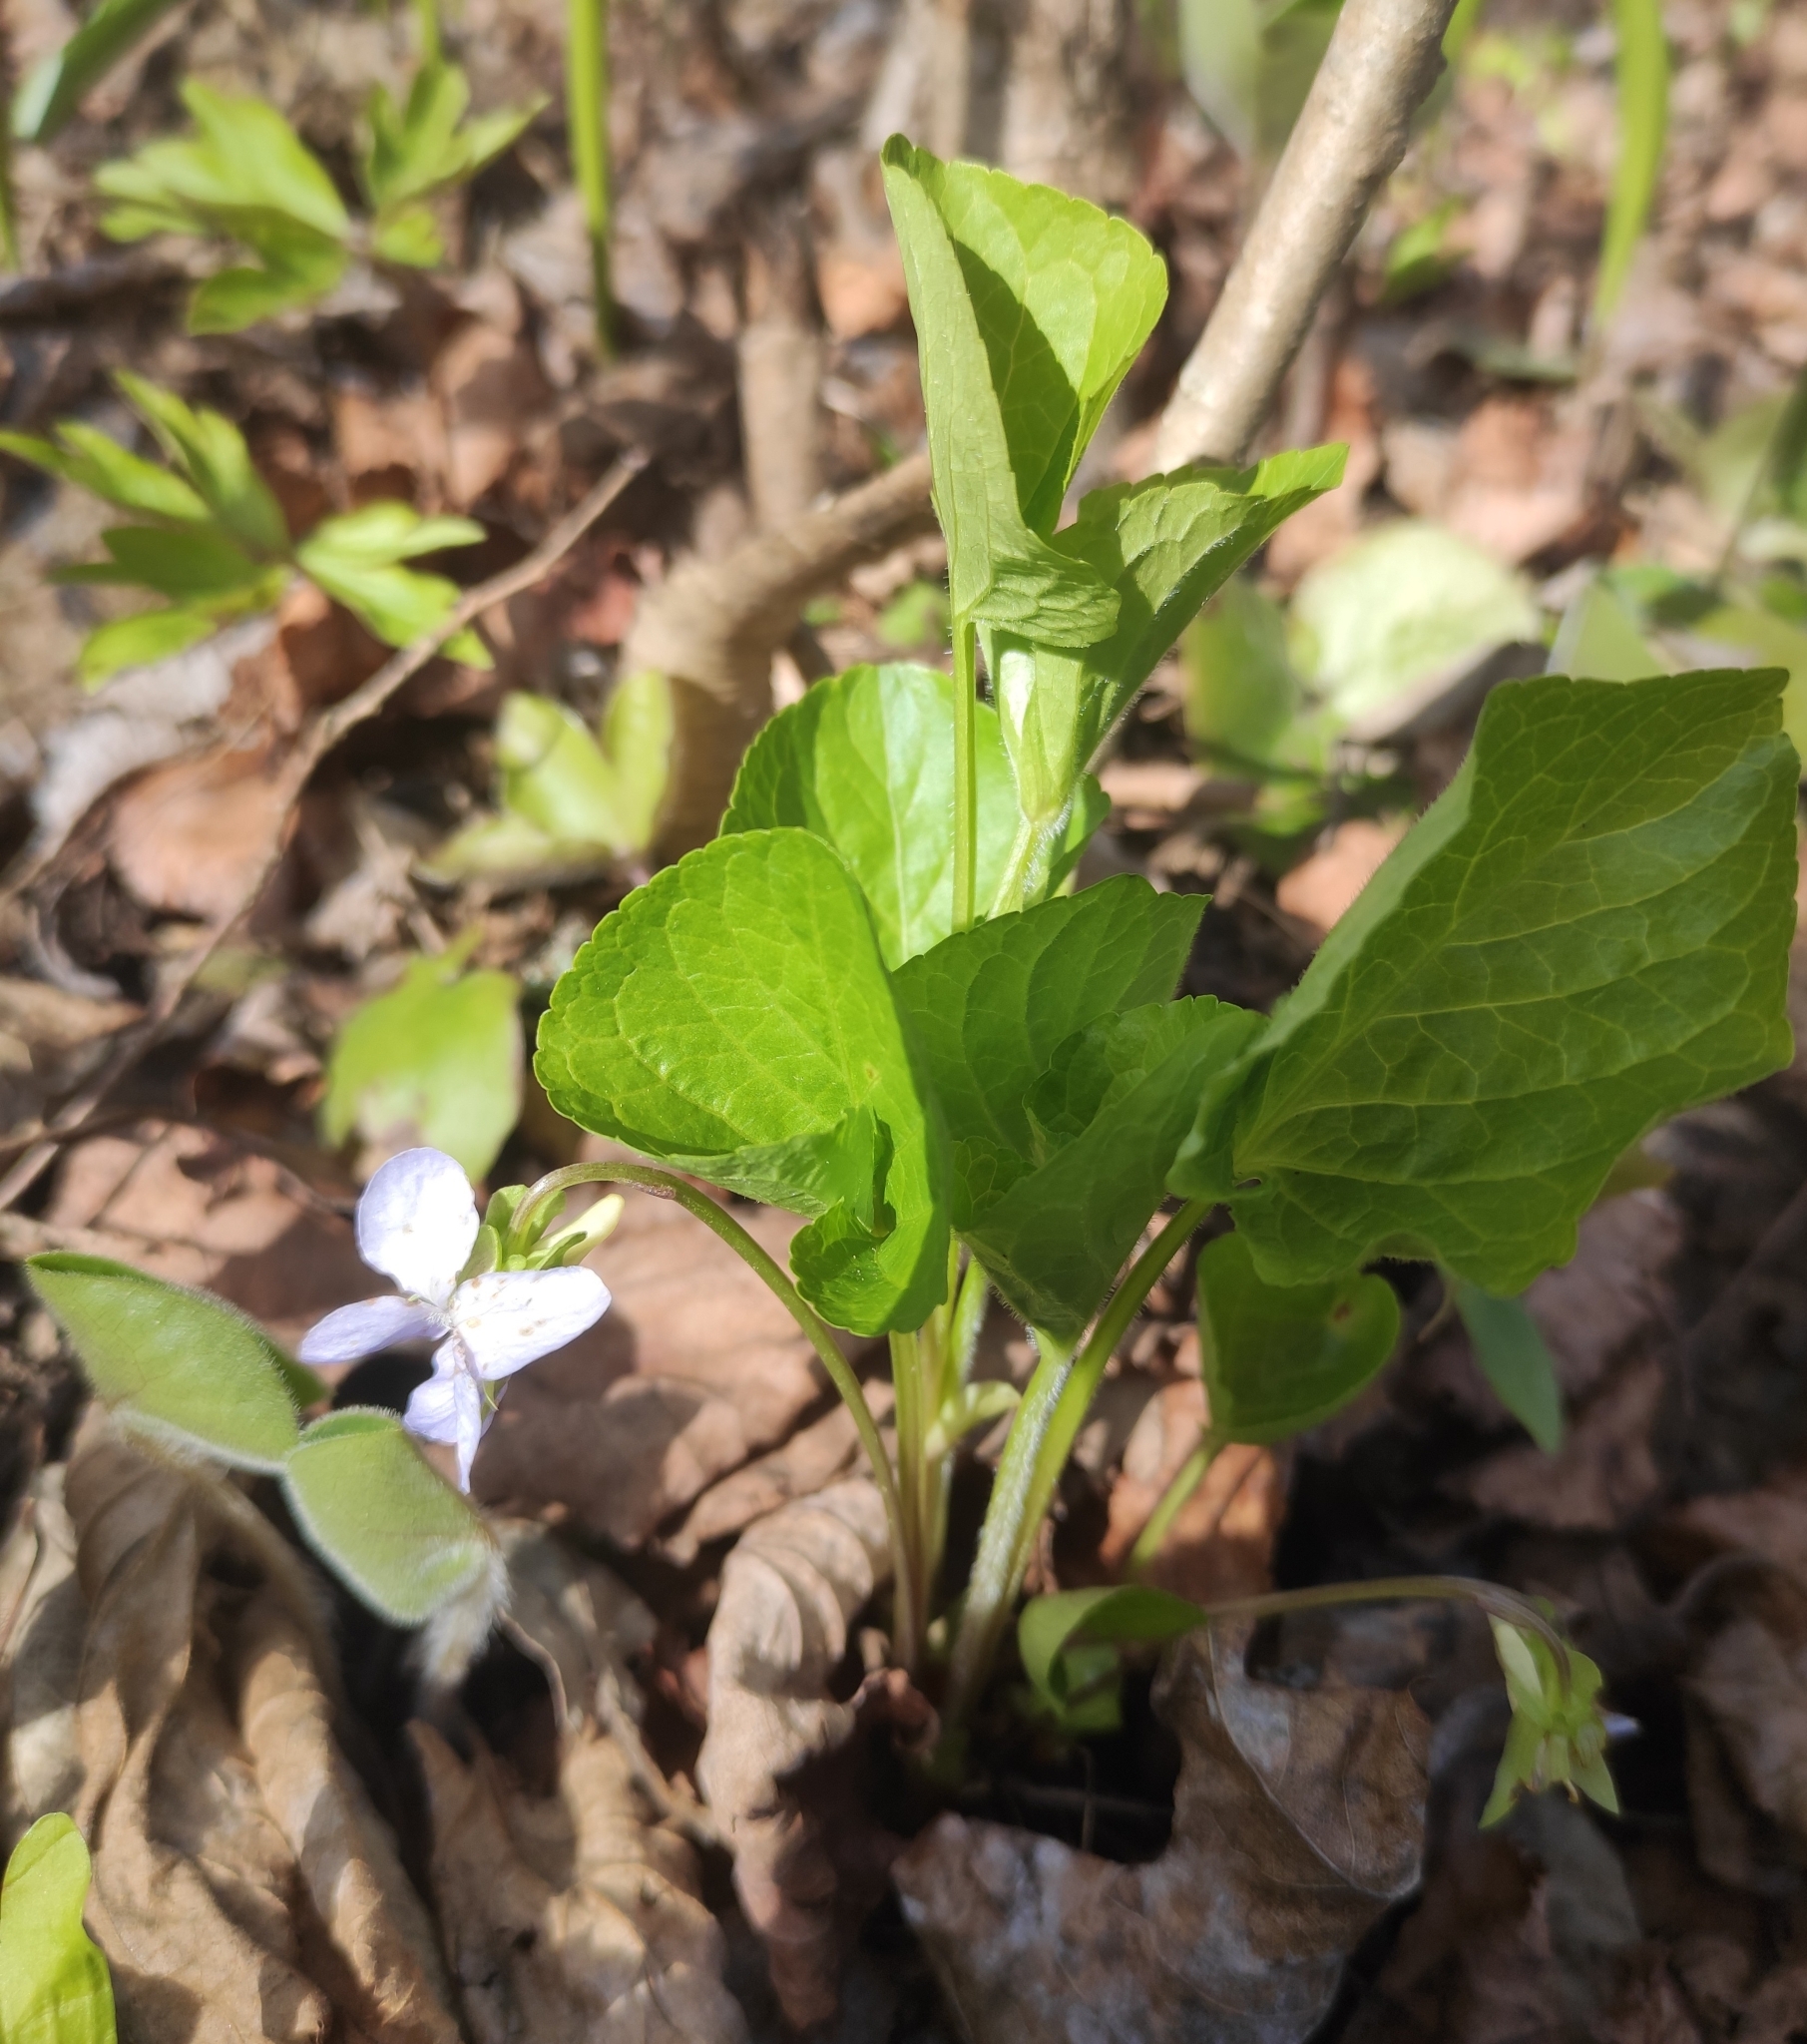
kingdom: Plantae
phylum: Tracheophyta
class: Magnoliopsida
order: Malpighiales
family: Violaceae
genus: Viola
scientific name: Viola mirabilis
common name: Wonder violet
